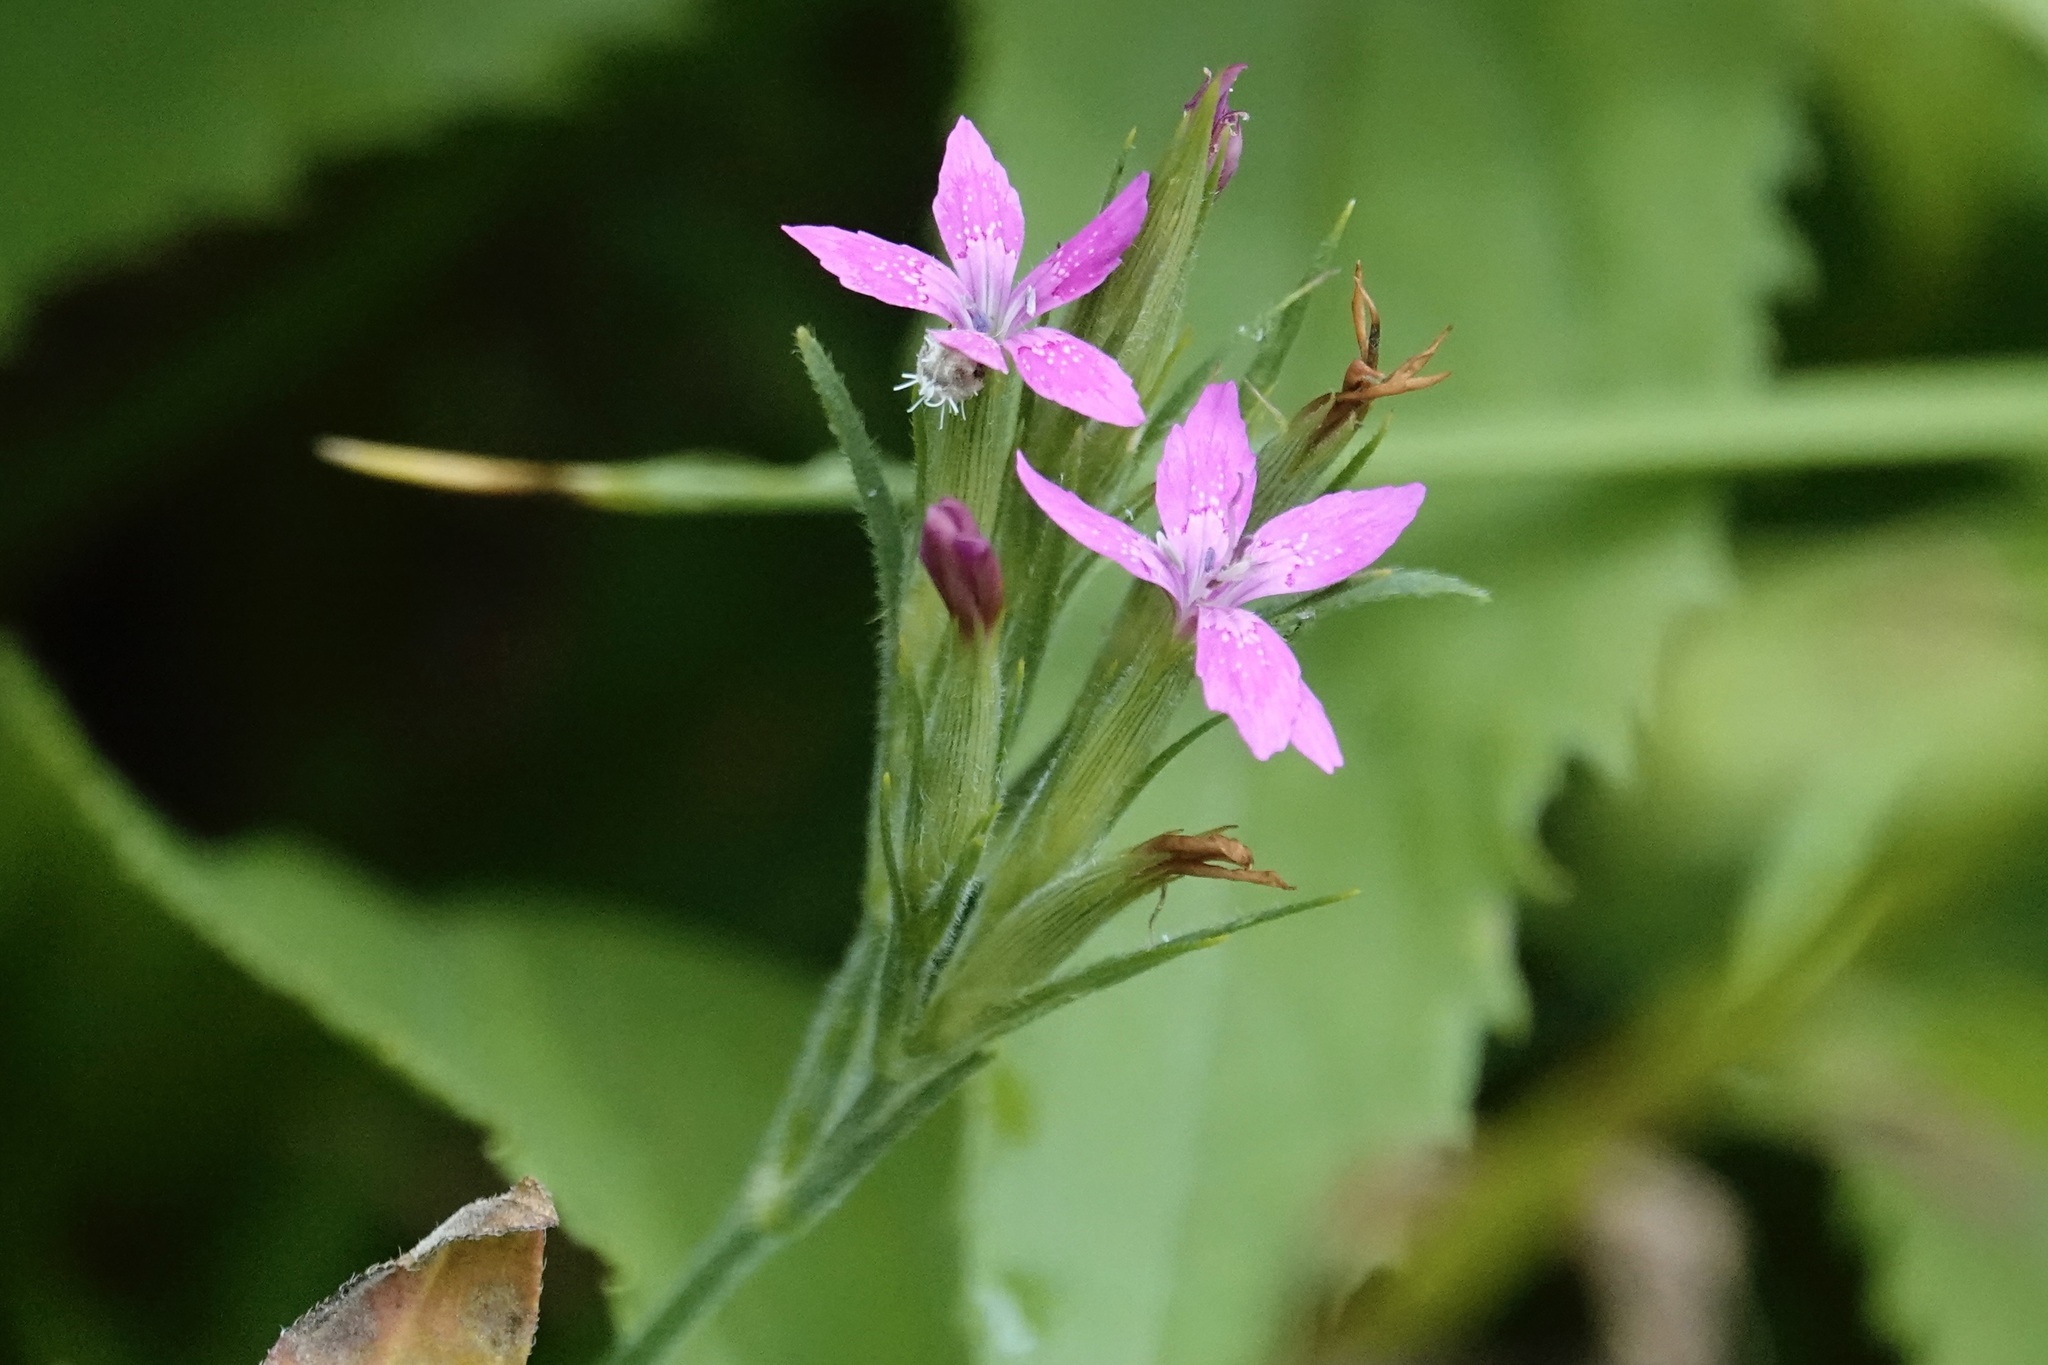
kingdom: Plantae
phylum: Tracheophyta
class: Magnoliopsida
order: Caryophyllales
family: Caryophyllaceae
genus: Dianthus
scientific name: Dianthus armeria
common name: Deptford pink
